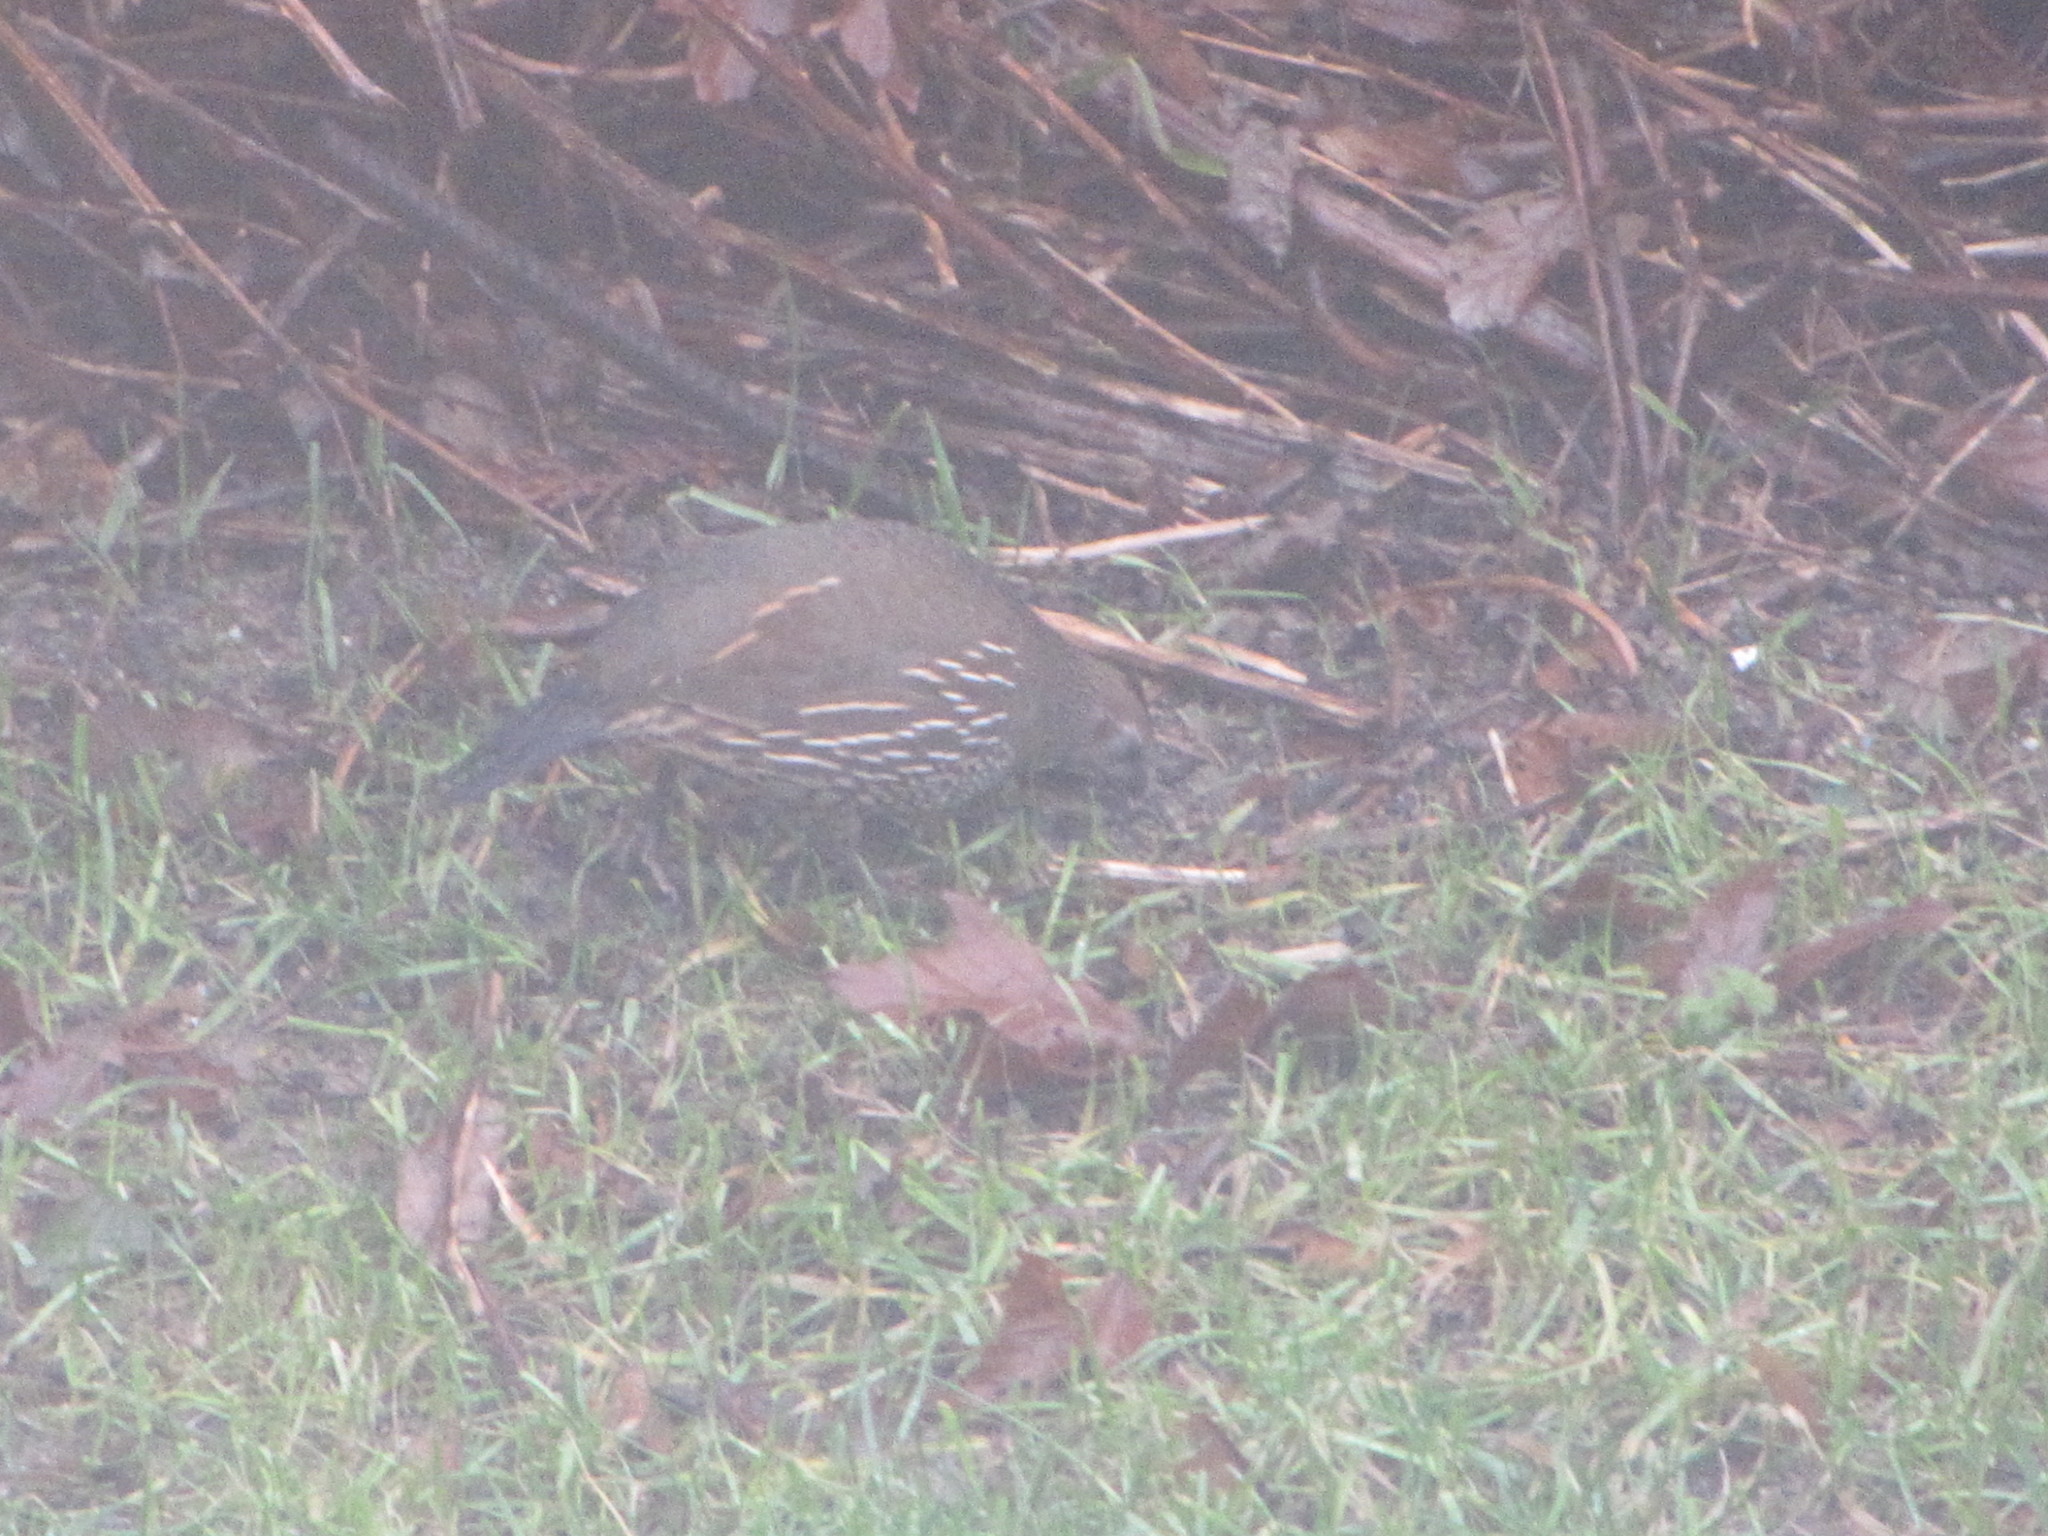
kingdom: Animalia
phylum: Chordata
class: Aves
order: Galliformes
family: Odontophoridae
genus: Callipepla
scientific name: Callipepla californica
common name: California quail
